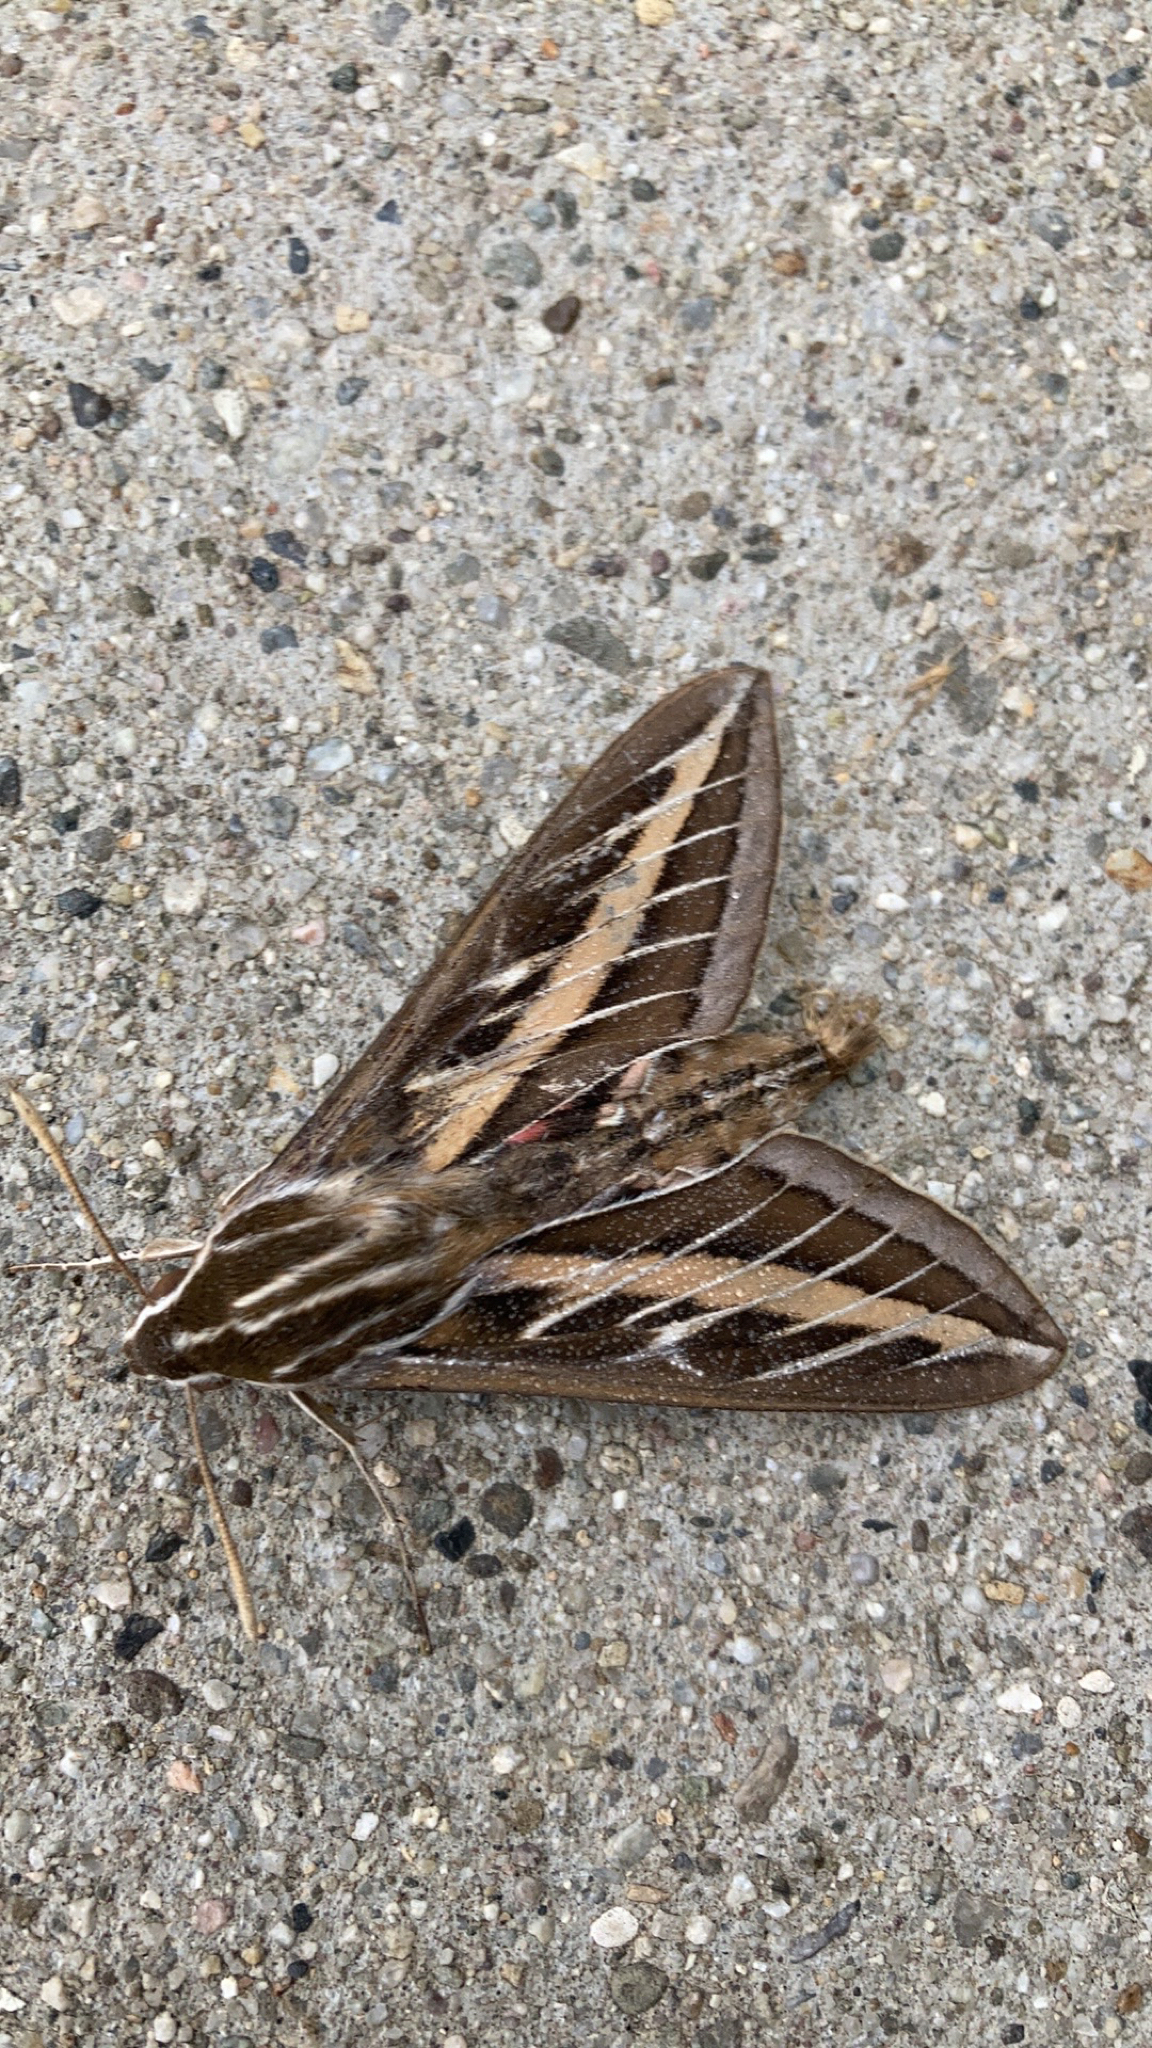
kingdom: Animalia
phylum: Arthropoda
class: Insecta
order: Lepidoptera
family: Sphingidae
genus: Hyles
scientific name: Hyles lineata
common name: White-lined sphinx
